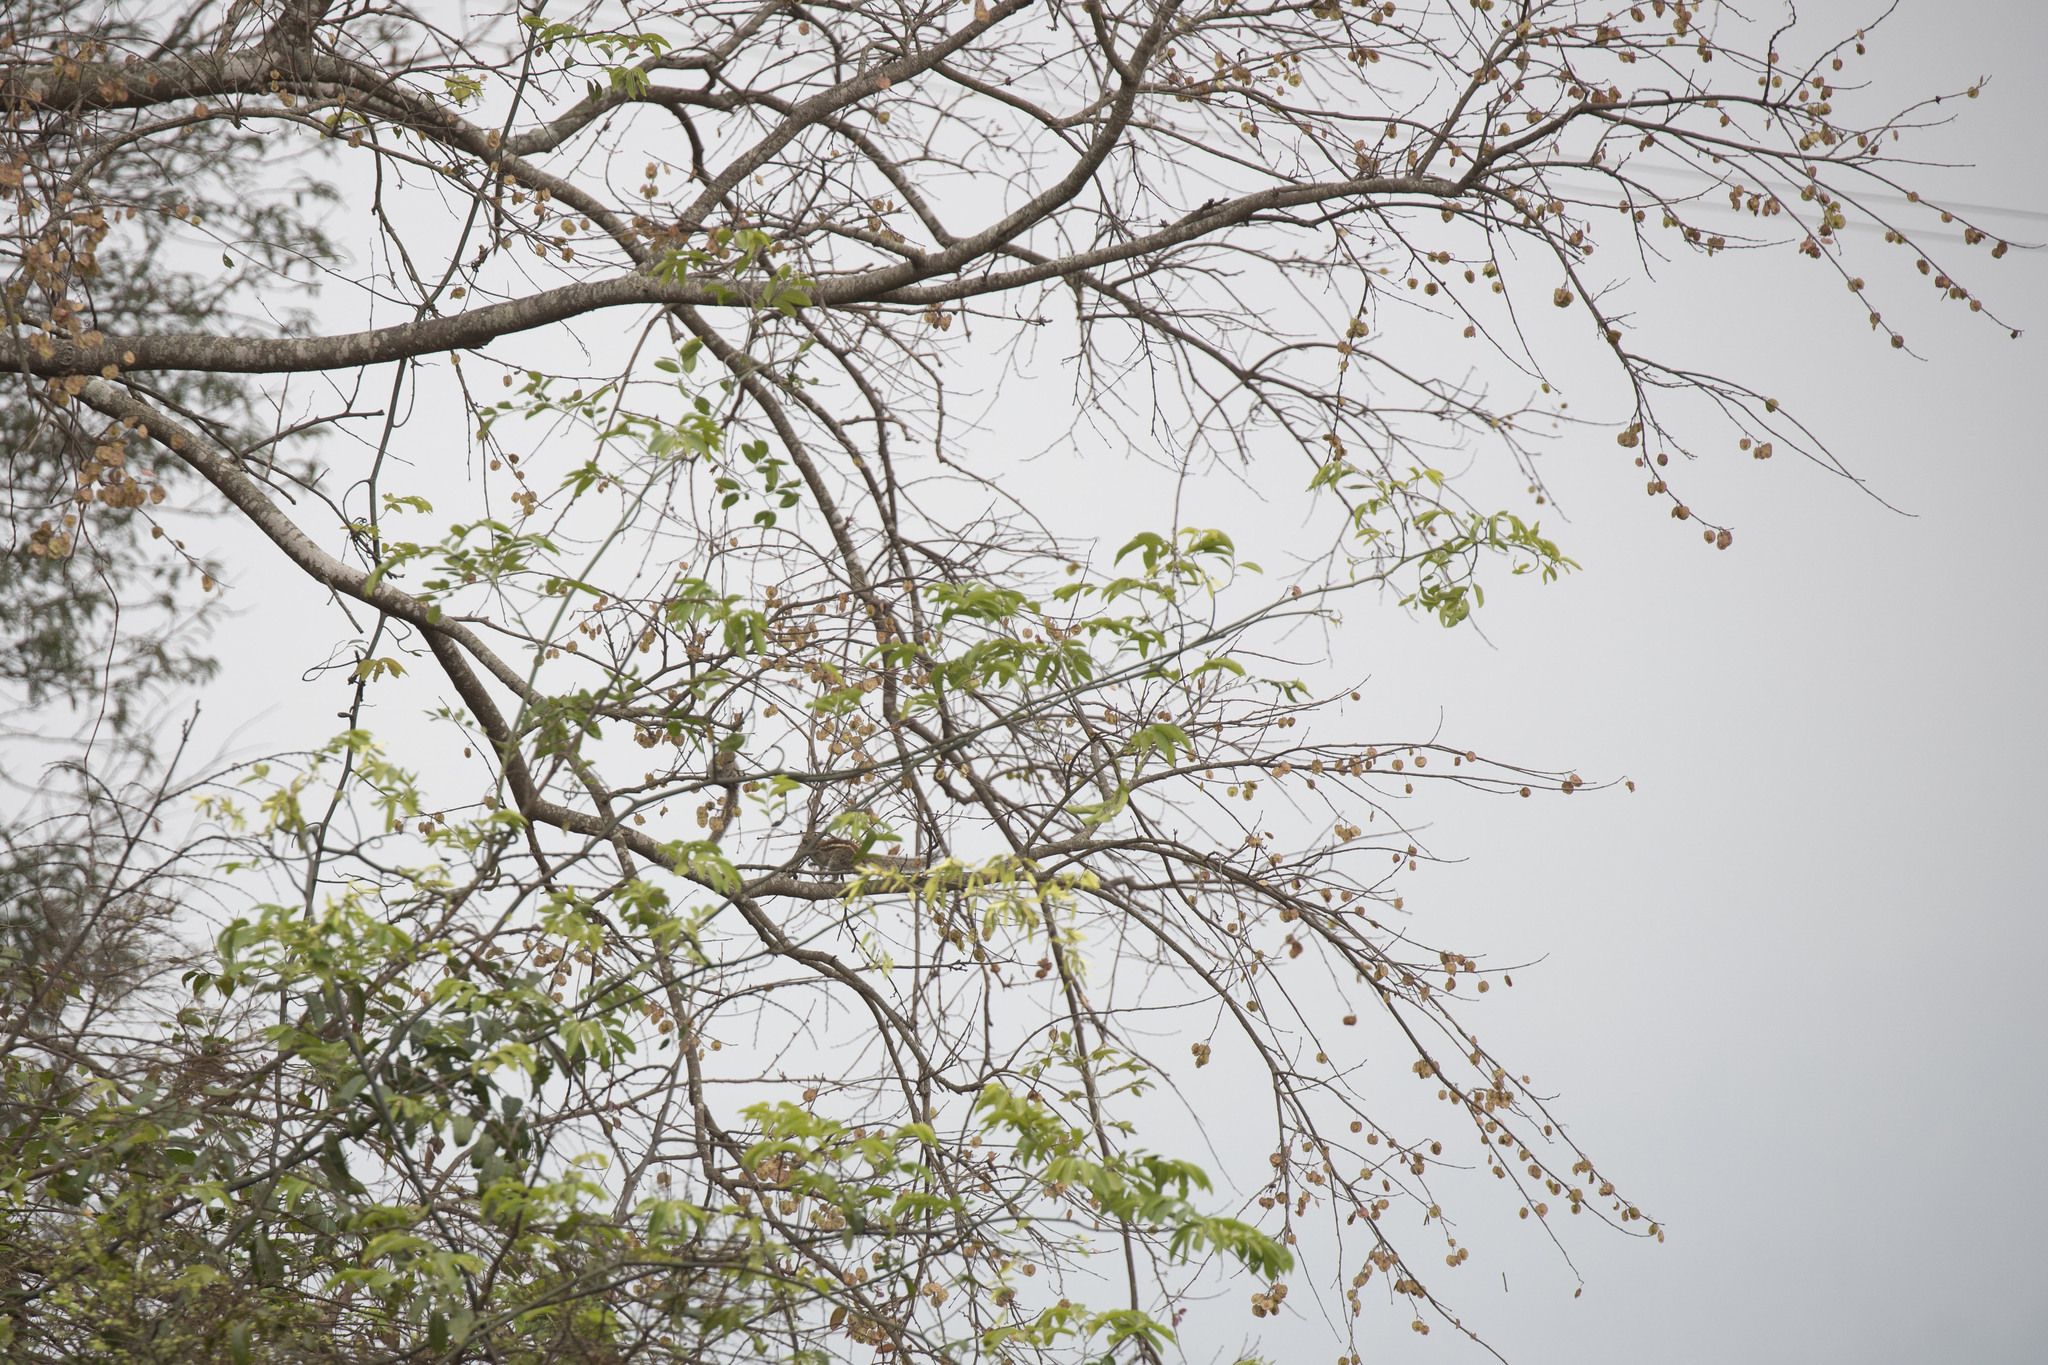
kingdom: Plantae
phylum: Tracheophyta
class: Magnoliopsida
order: Rosales
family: Ulmaceae
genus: Holoptelea
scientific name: Holoptelea integrifolia
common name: Indian-elm
